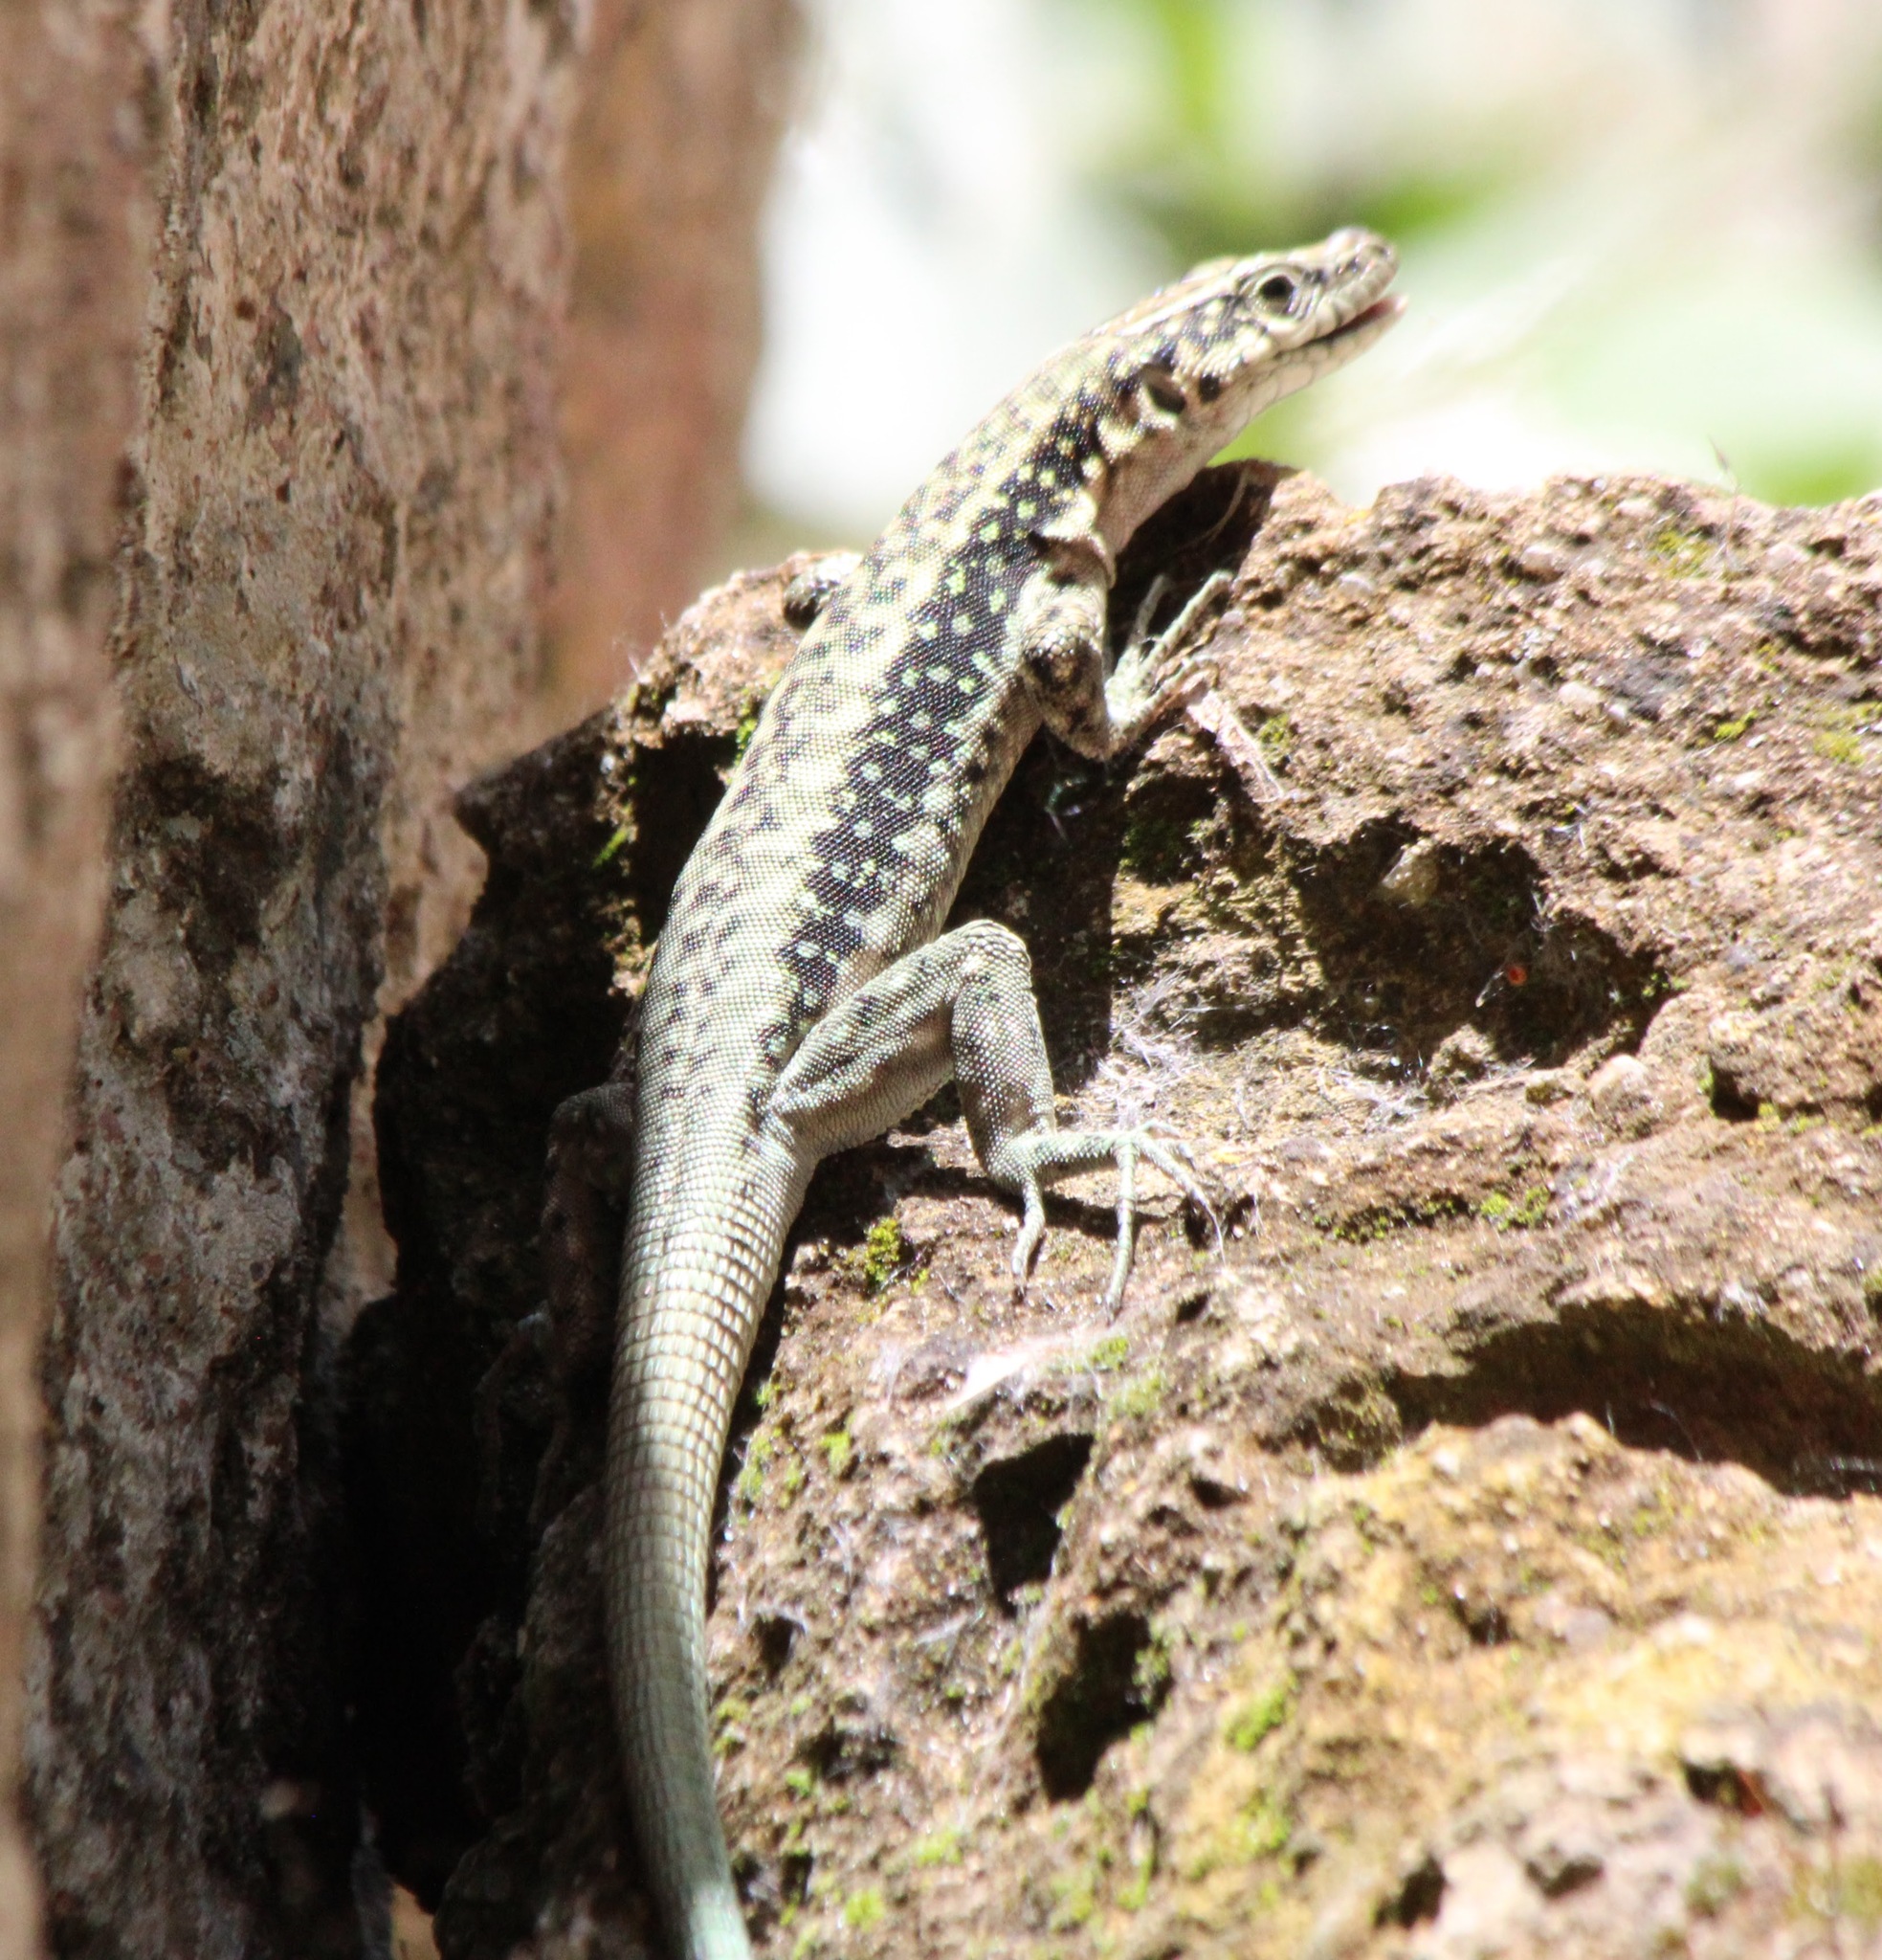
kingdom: Animalia
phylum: Chordata
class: Squamata
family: Lacertidae
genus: Apathya
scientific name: Apathya cappadocica
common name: Anatolian lizard
